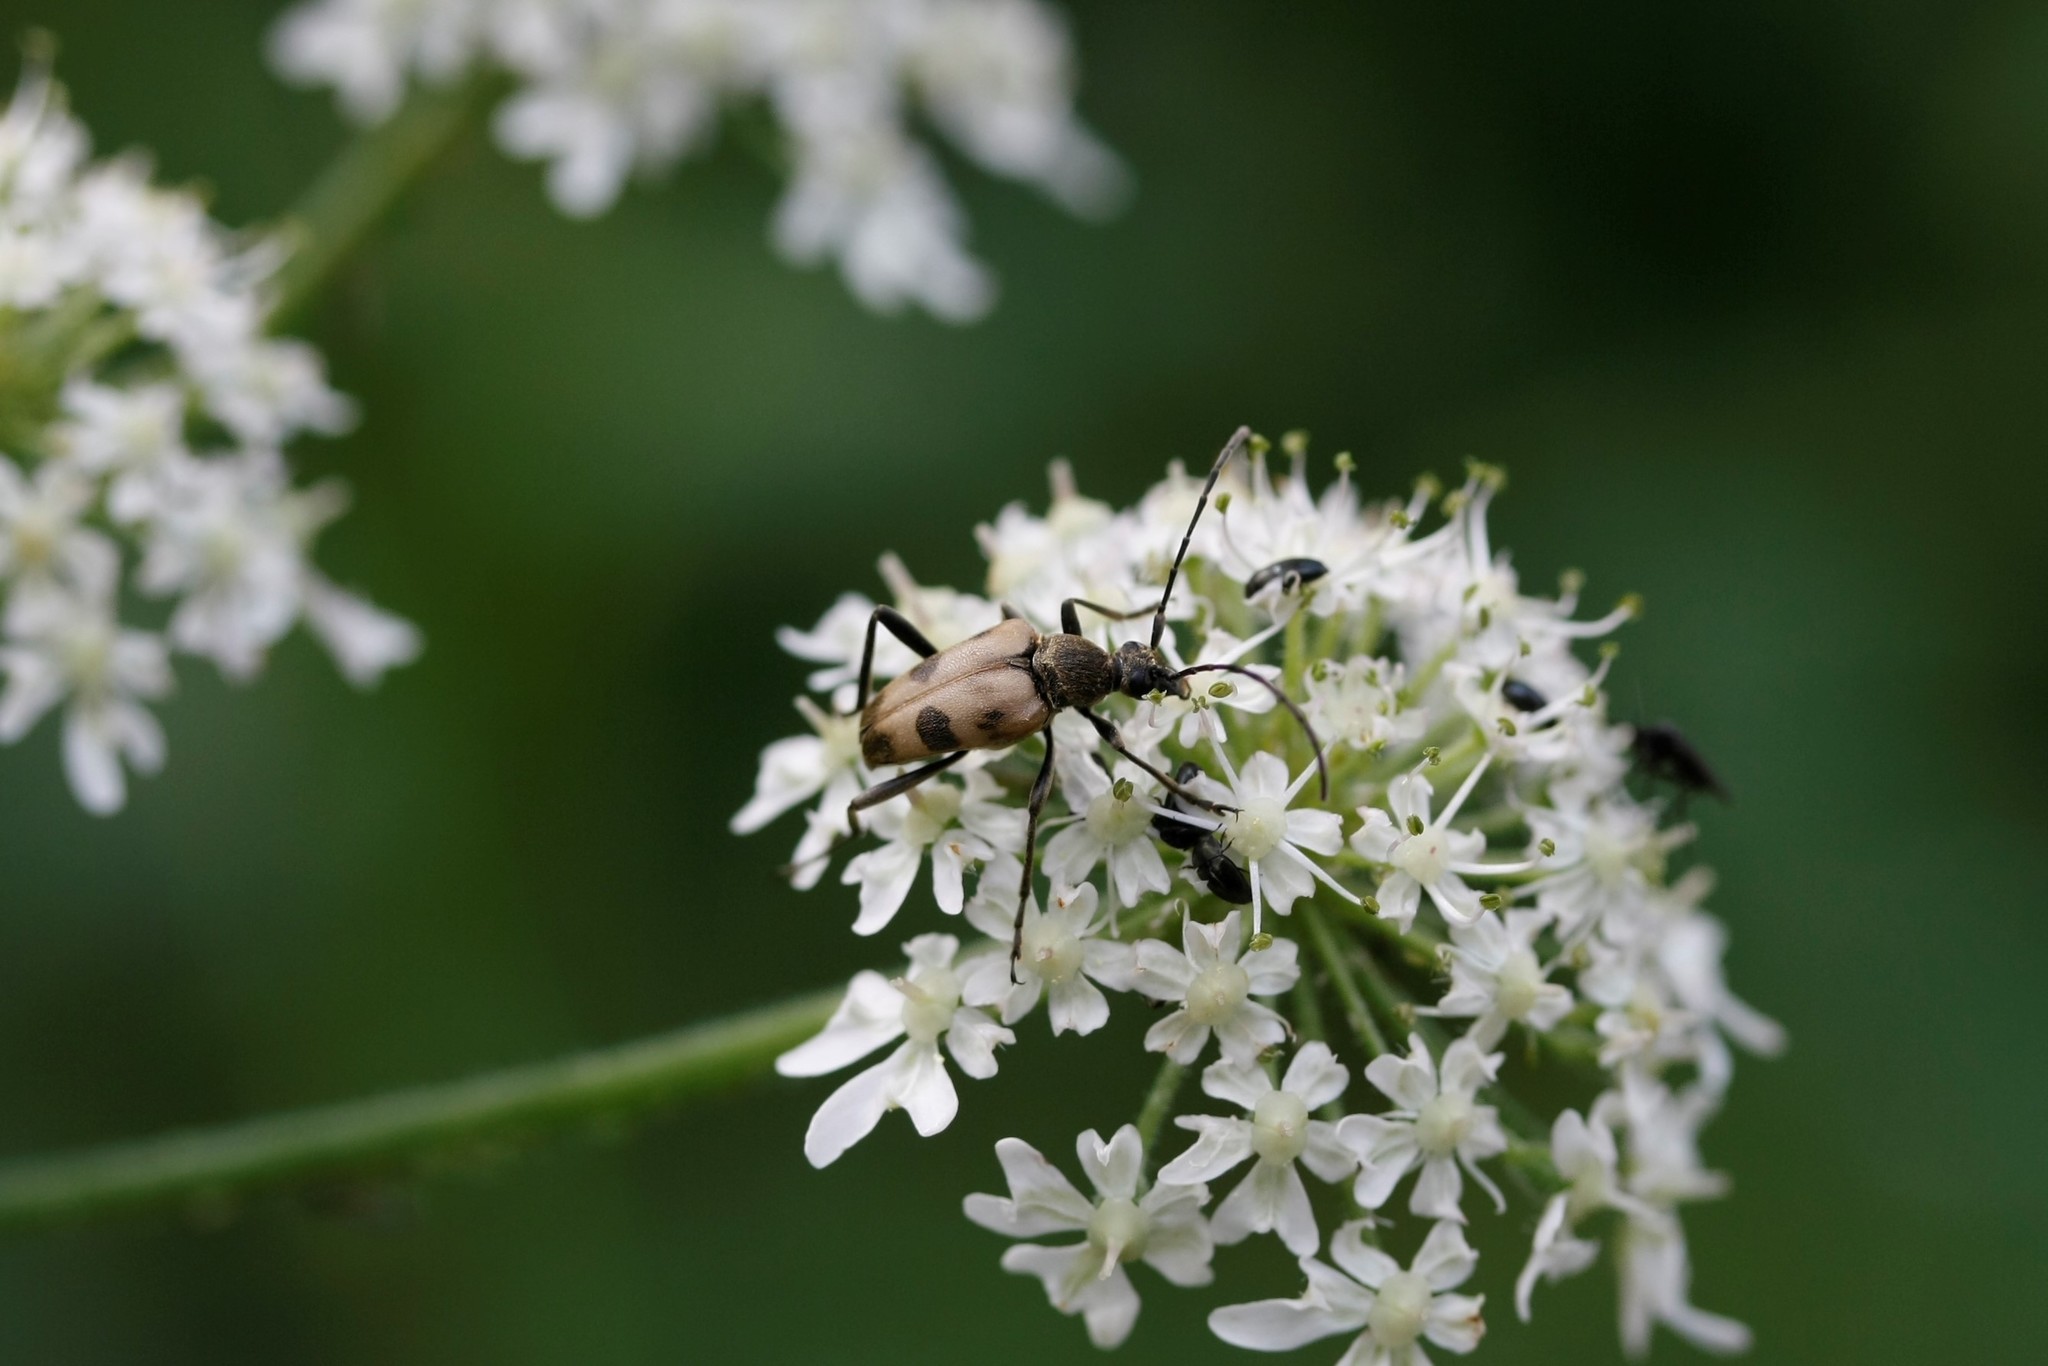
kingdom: Animalia
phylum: Arthropoda
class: Insecta
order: Coleoptera
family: Cerambycidae
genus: Pachytodes
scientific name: Pachytodes cerambyciformis
